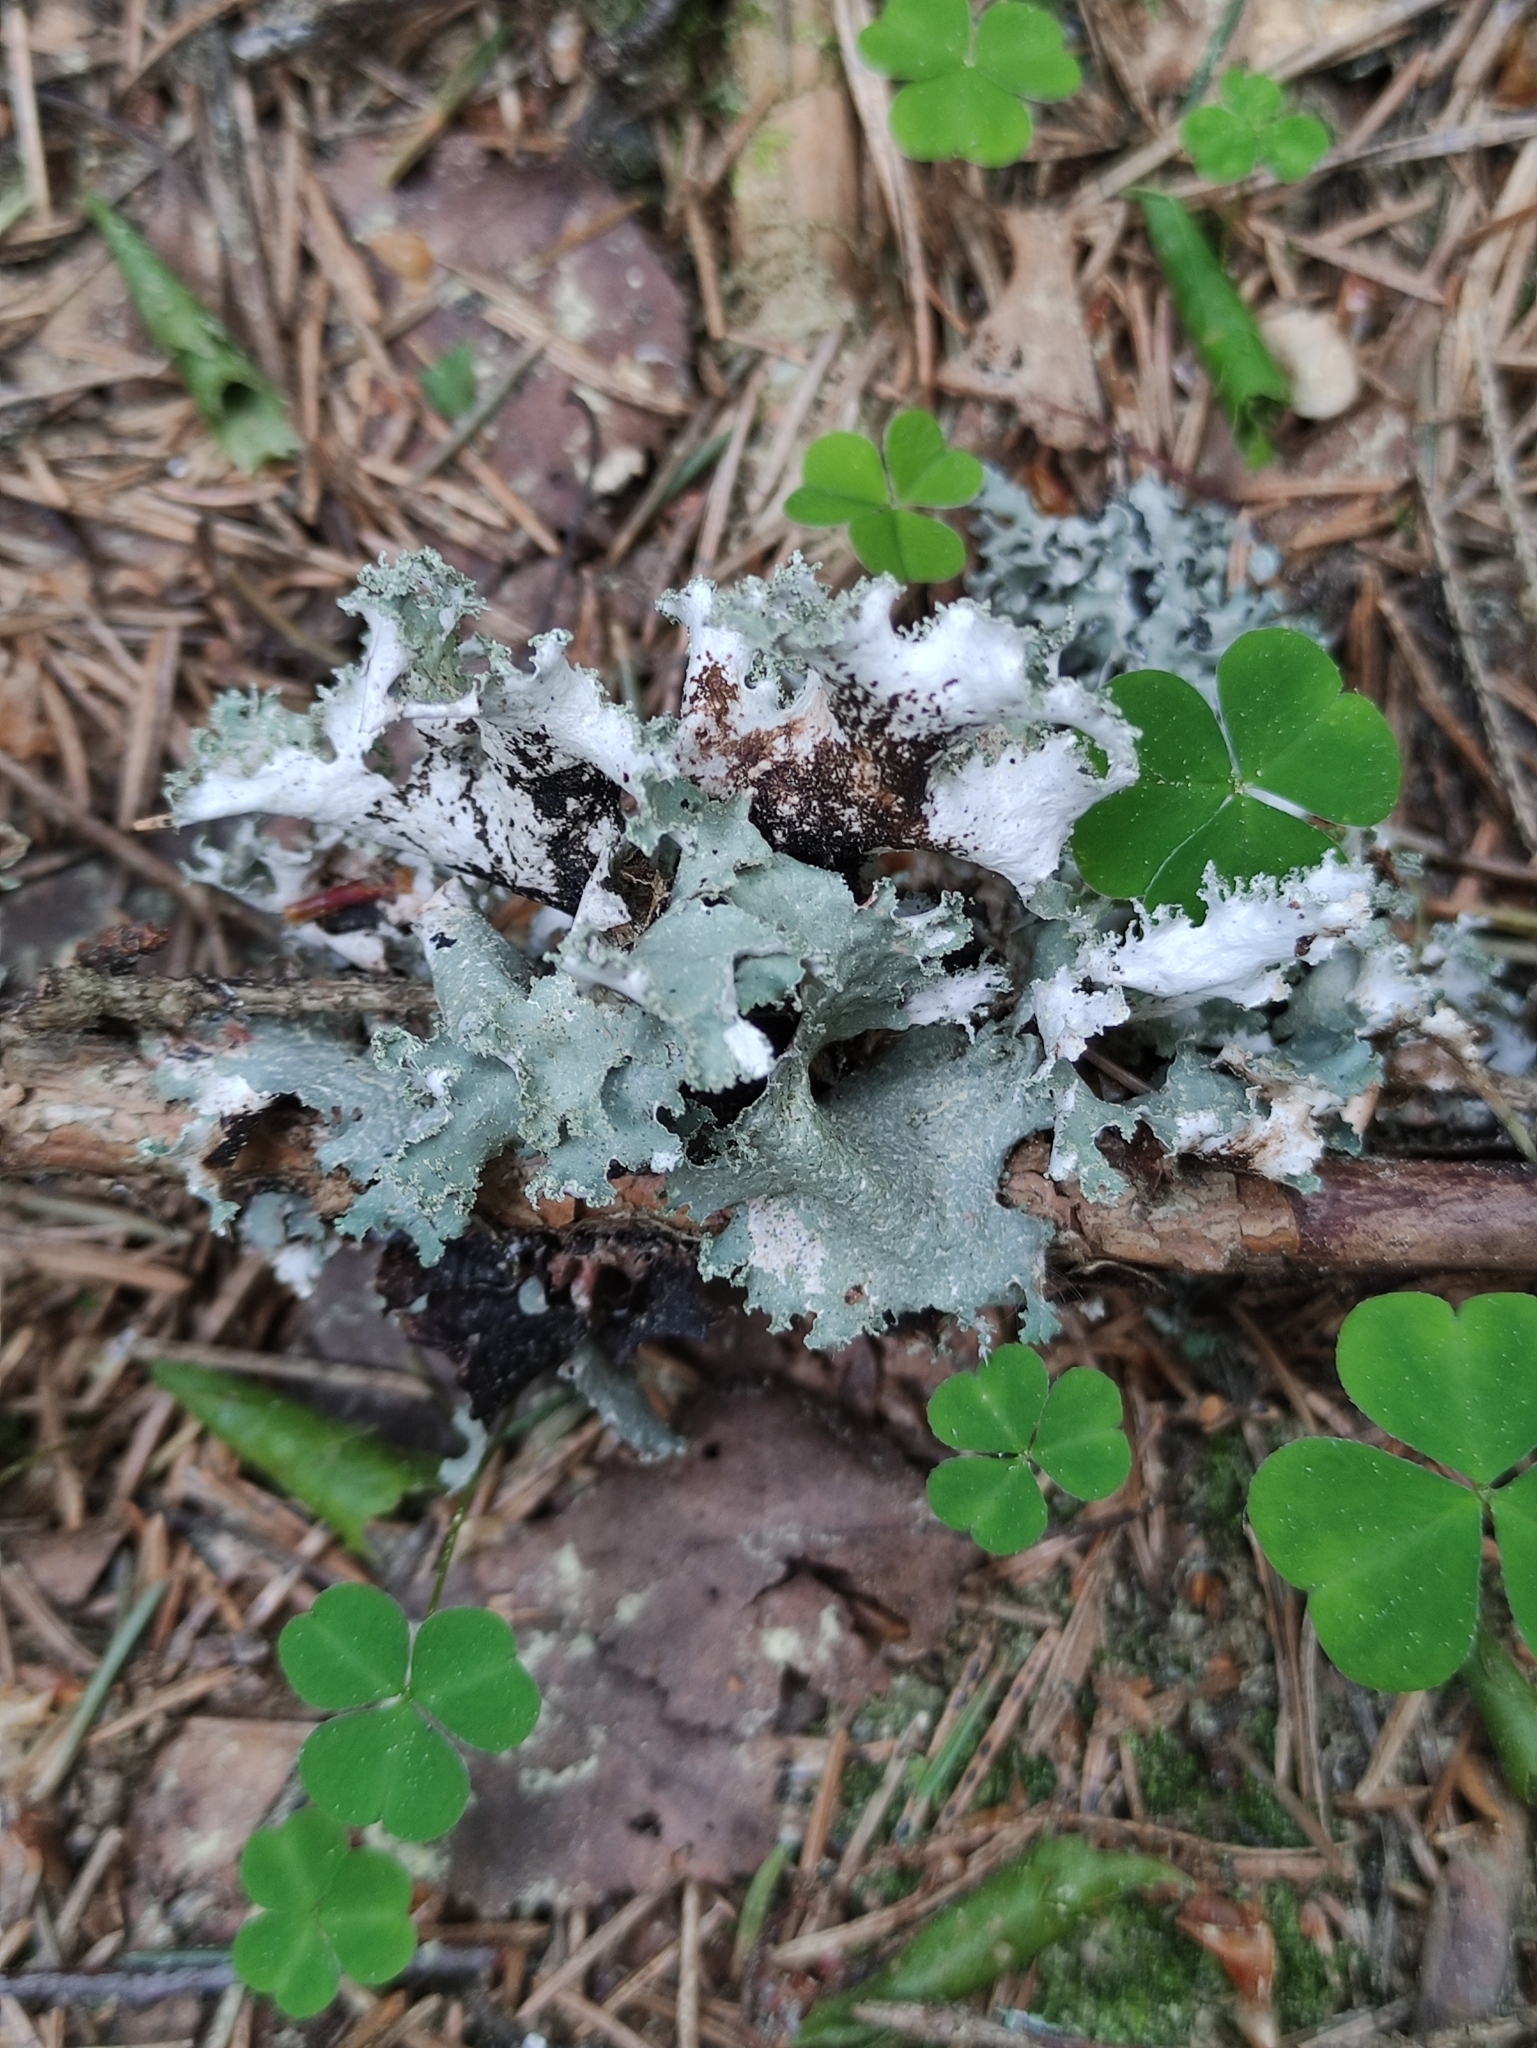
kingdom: Fungi
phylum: Ascomycota
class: Lecanoromycetes
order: Lecanorales
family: Parmeliaceae
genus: Platismatia
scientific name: Platismatia glauca
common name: Varied rag lichen
